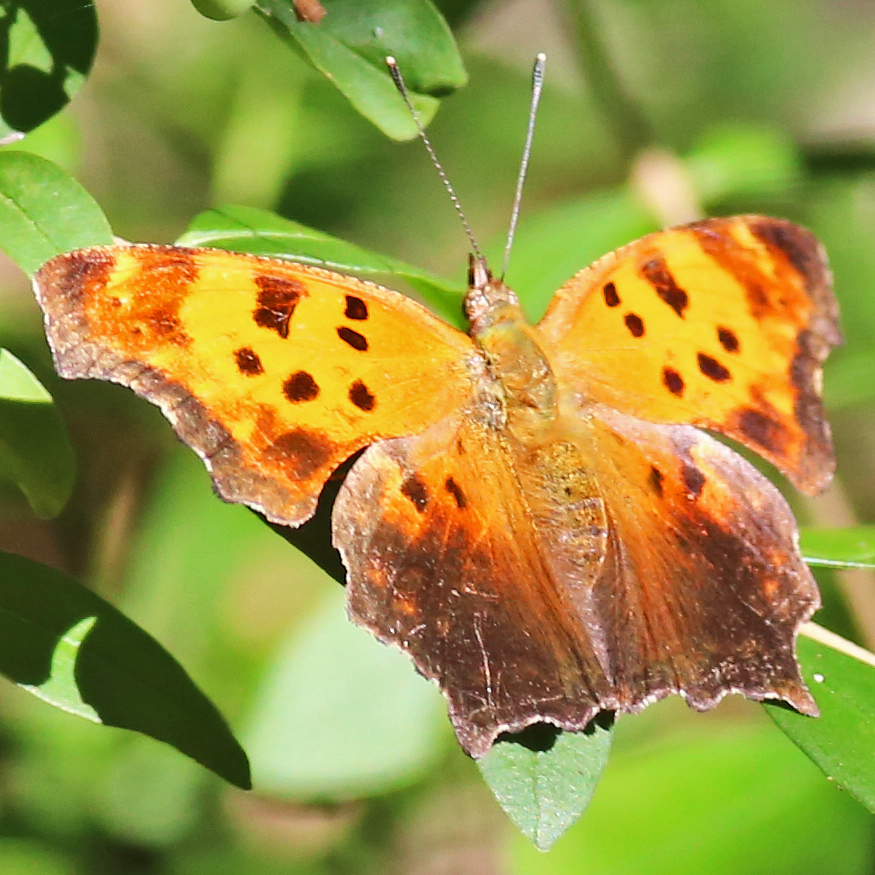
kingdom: Animalia
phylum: Arthropoda
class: Insecta
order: Lepidoptera
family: Nymphalidae
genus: Polygonia
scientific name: Polygonia comma
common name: Eastern comma
